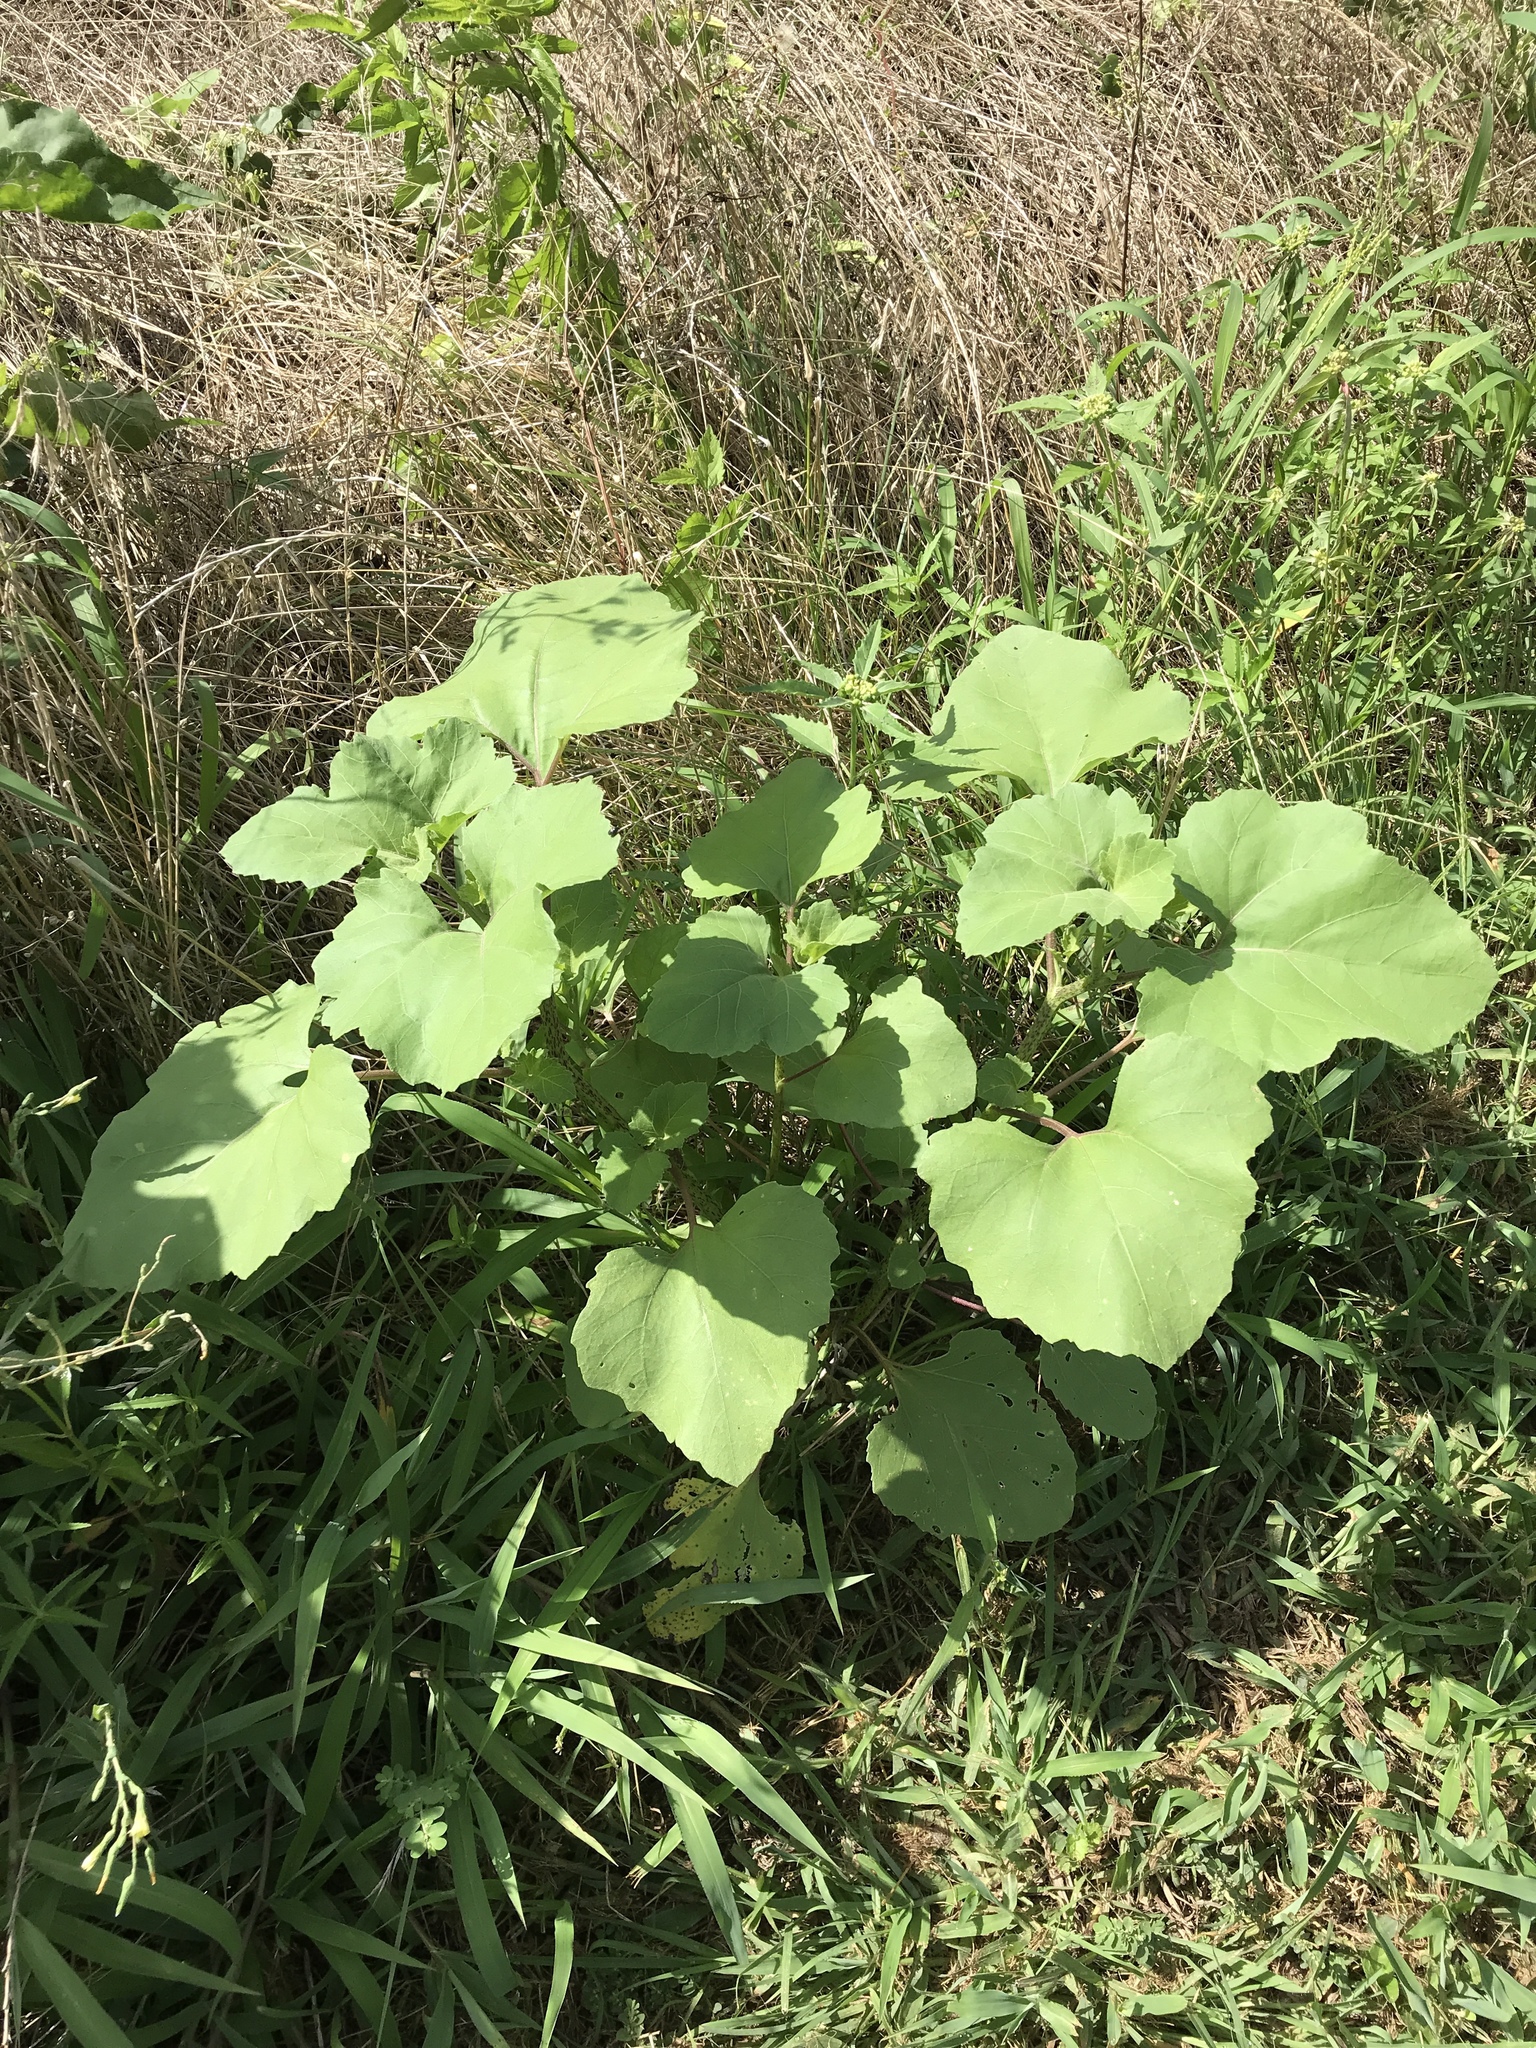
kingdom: Plantae
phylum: Tracheophyta
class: Magnoliopsida
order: Asterales
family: Asteraceae
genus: Xanthium
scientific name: Xanthium strumarium
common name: Rough cocklebur
